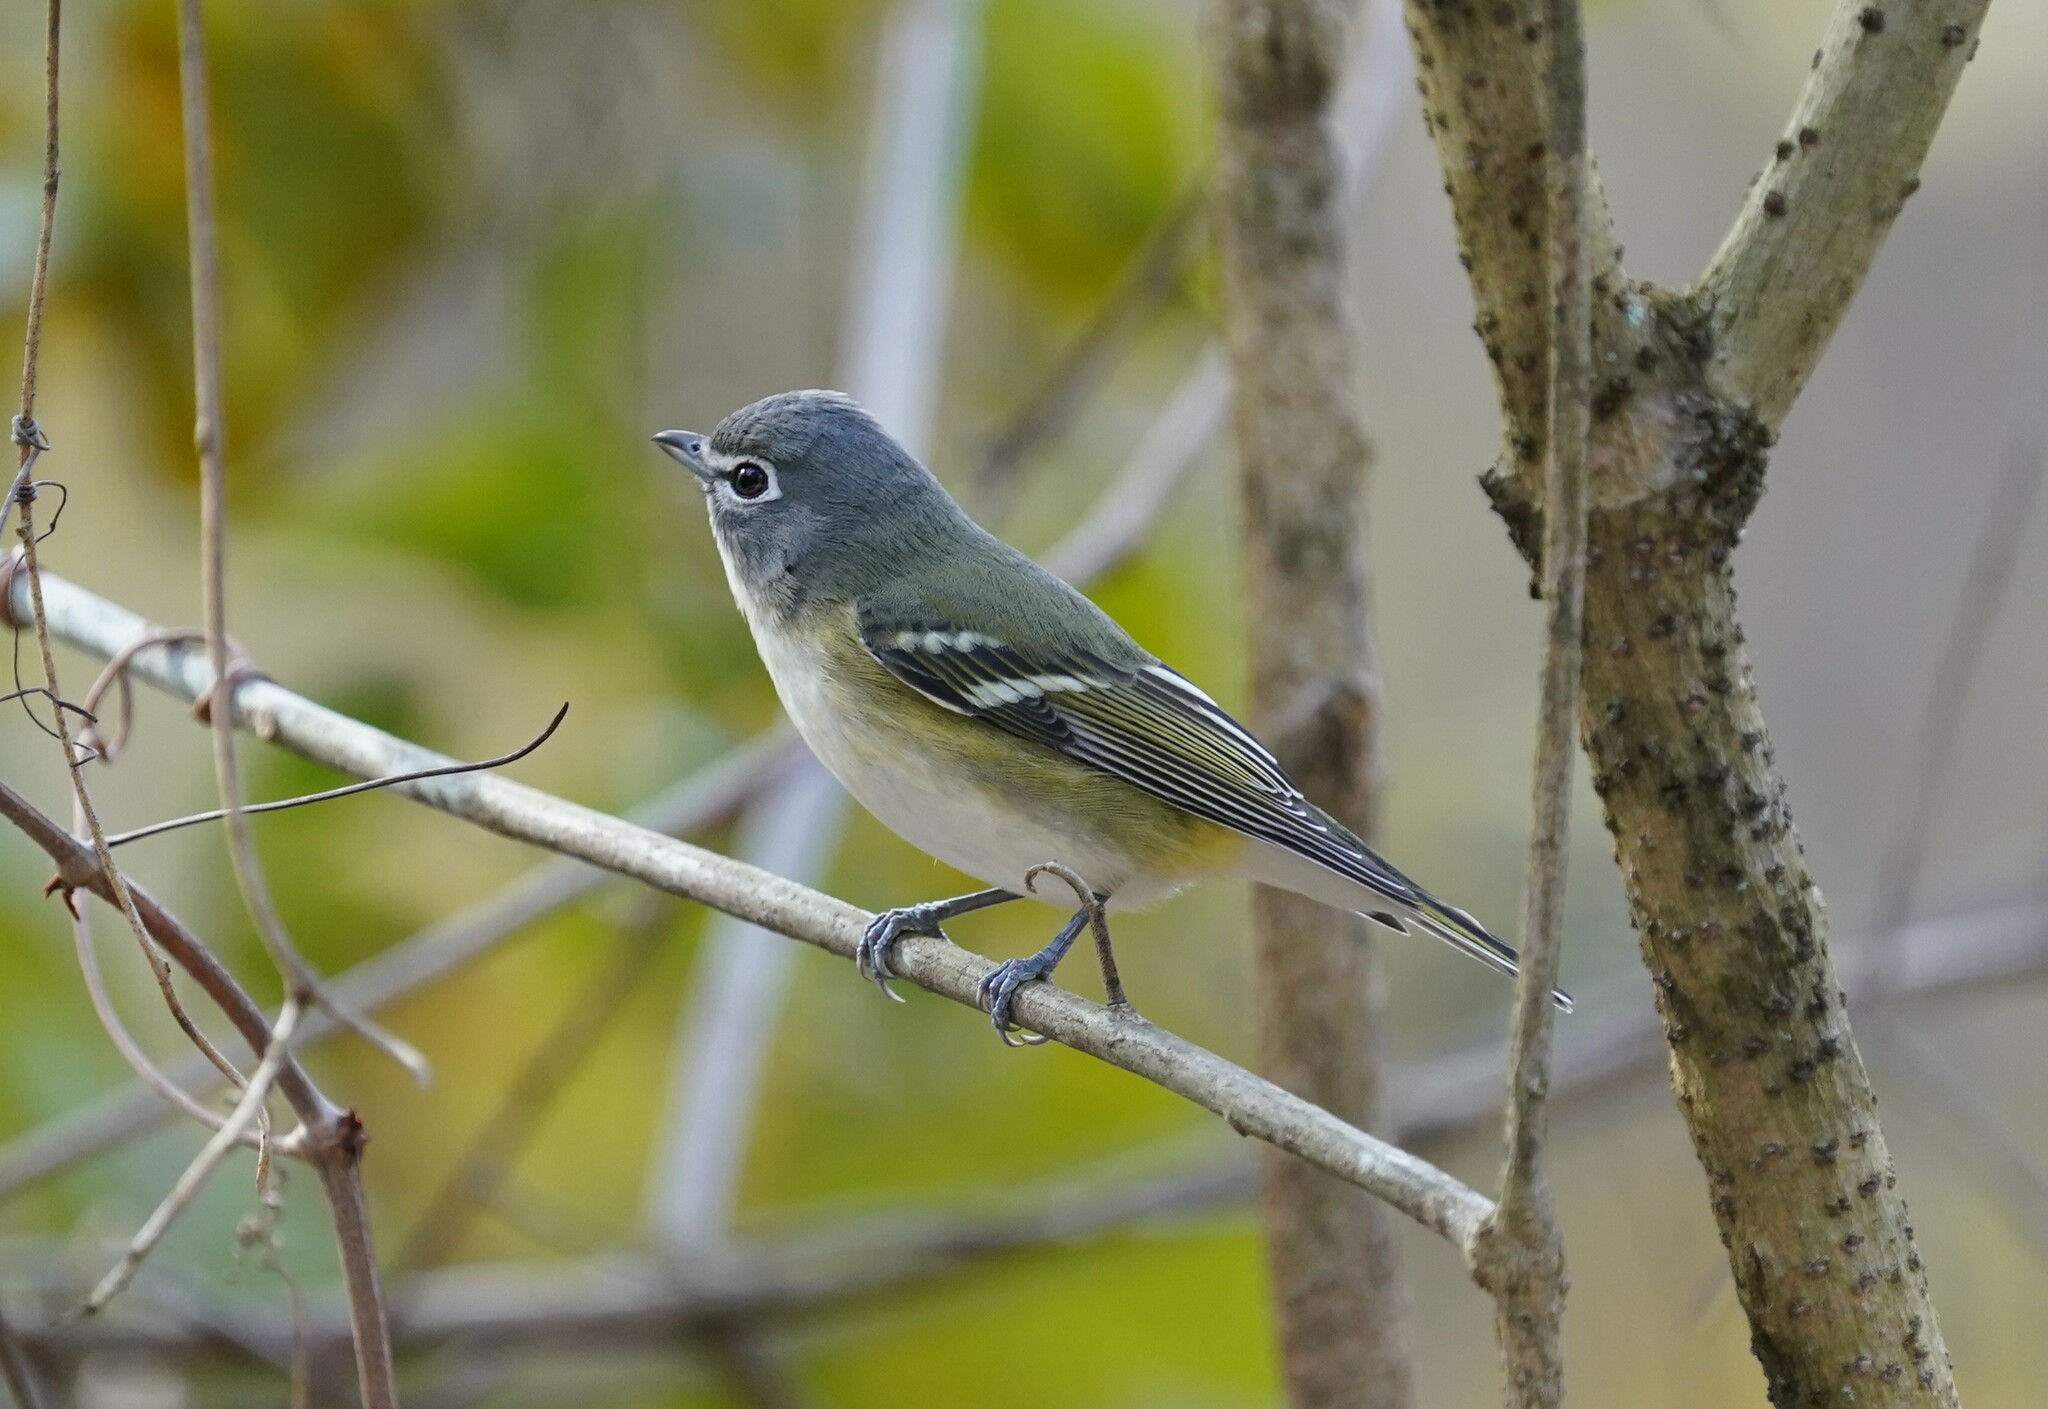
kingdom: Animalia
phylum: Chordata
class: Aves
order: Passeriformes
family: Vireonidae
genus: Vireo
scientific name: Vireo solitarius
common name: Blue-headed vireo
